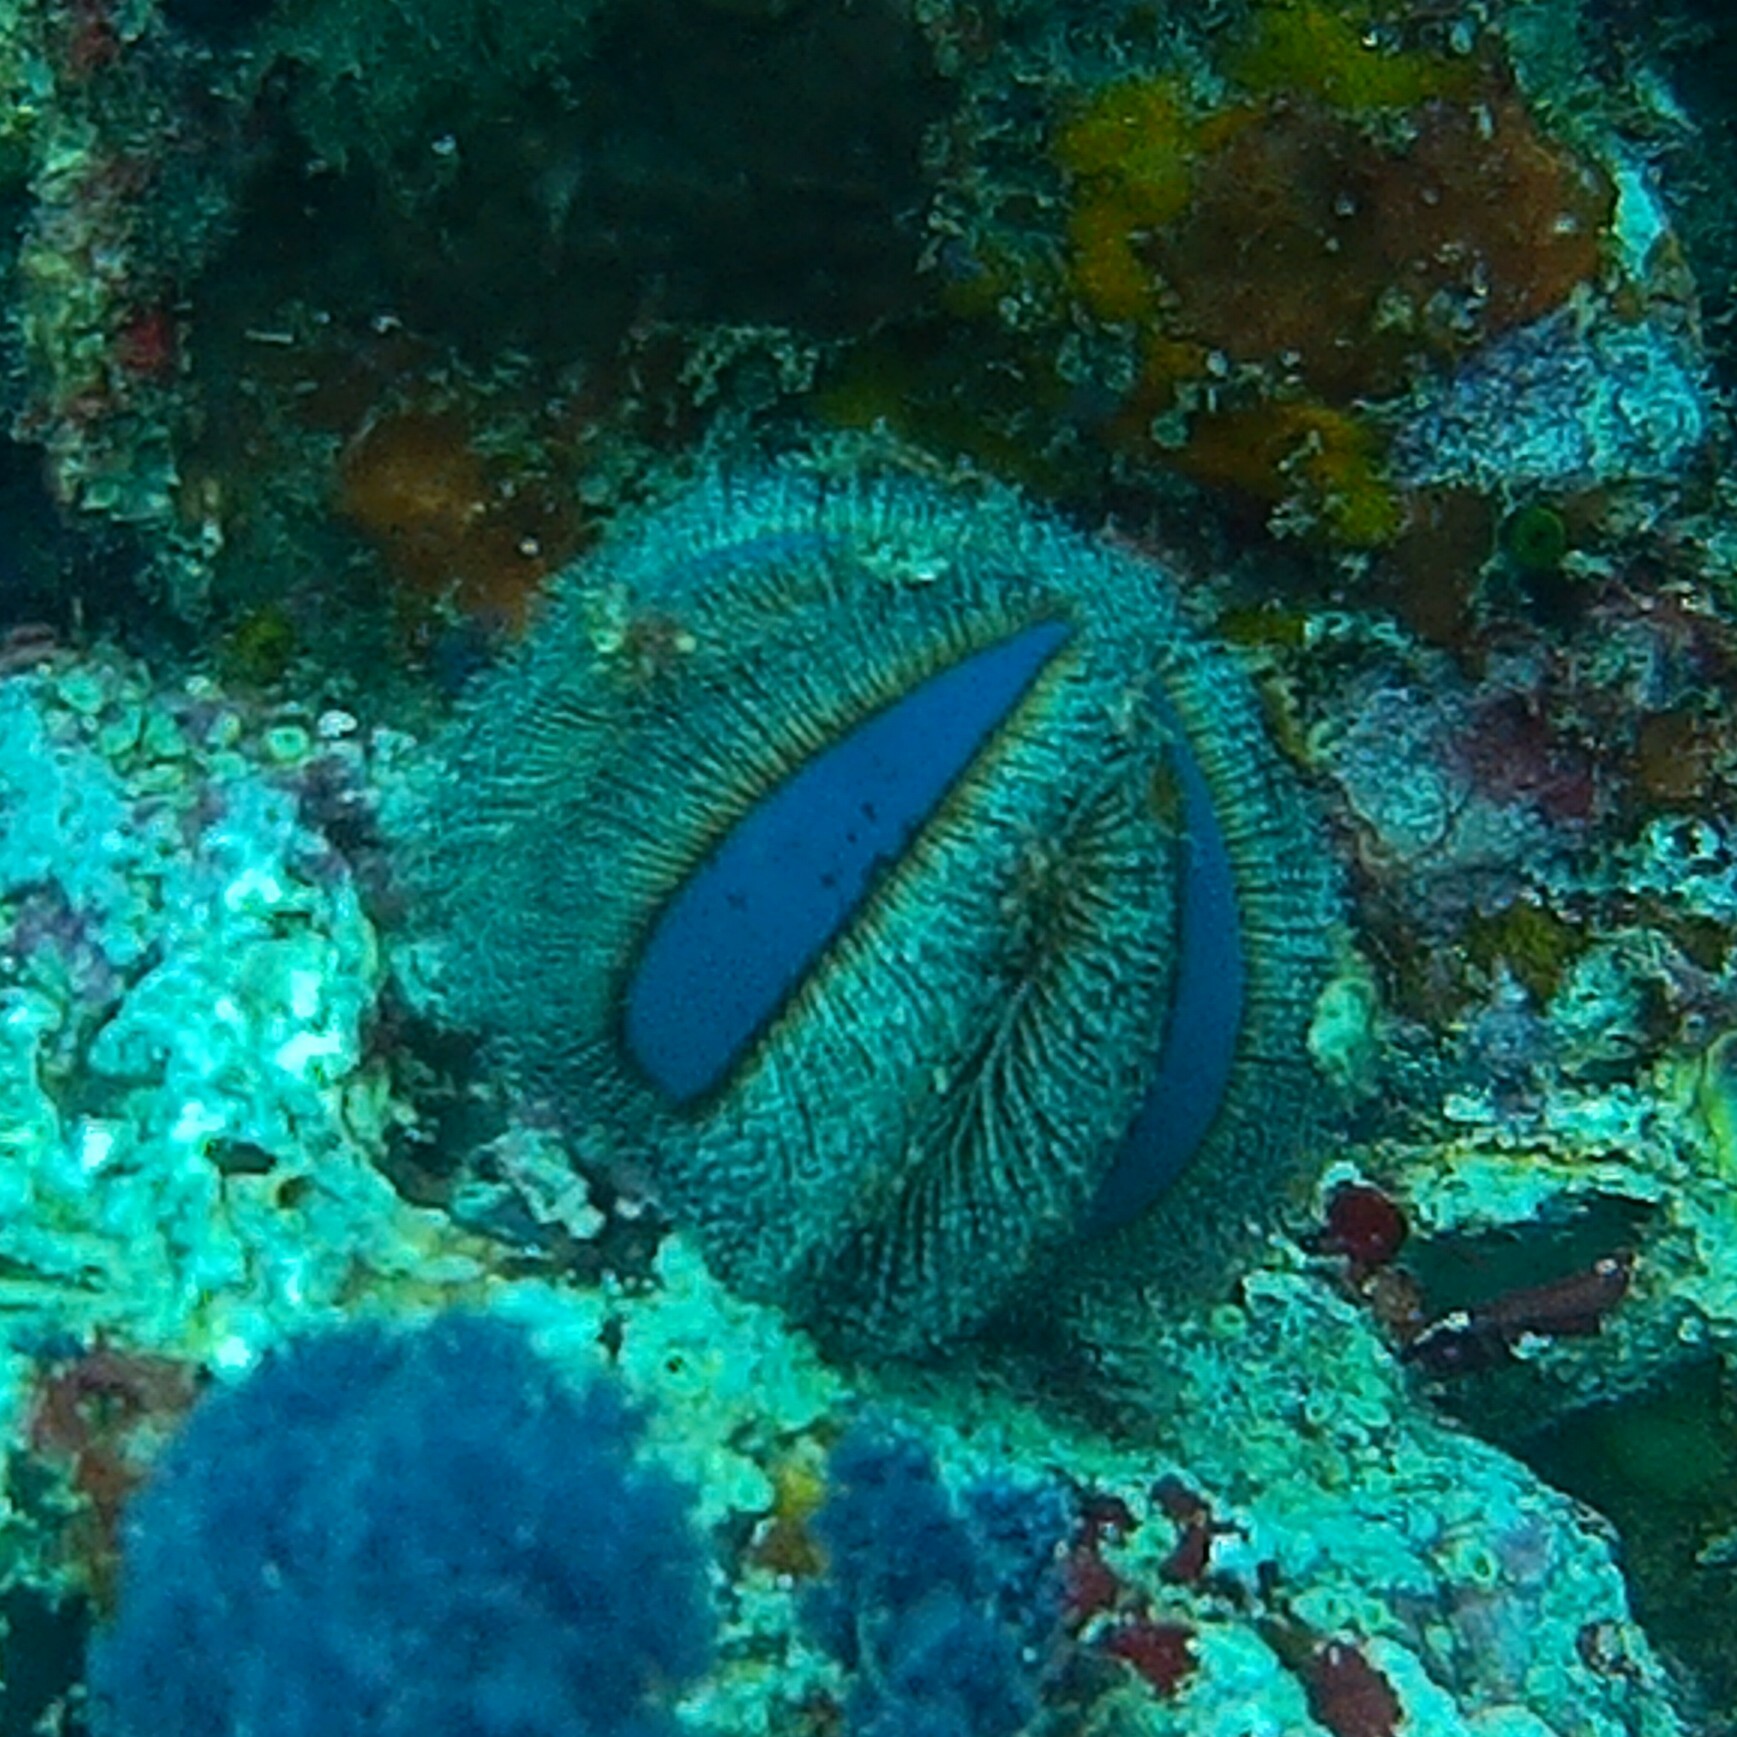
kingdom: Animalia
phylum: Echinodermata
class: Echinoidea
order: Camarodonta
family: Temnopleuridae
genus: Mespilia
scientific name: Mespilia globulus
